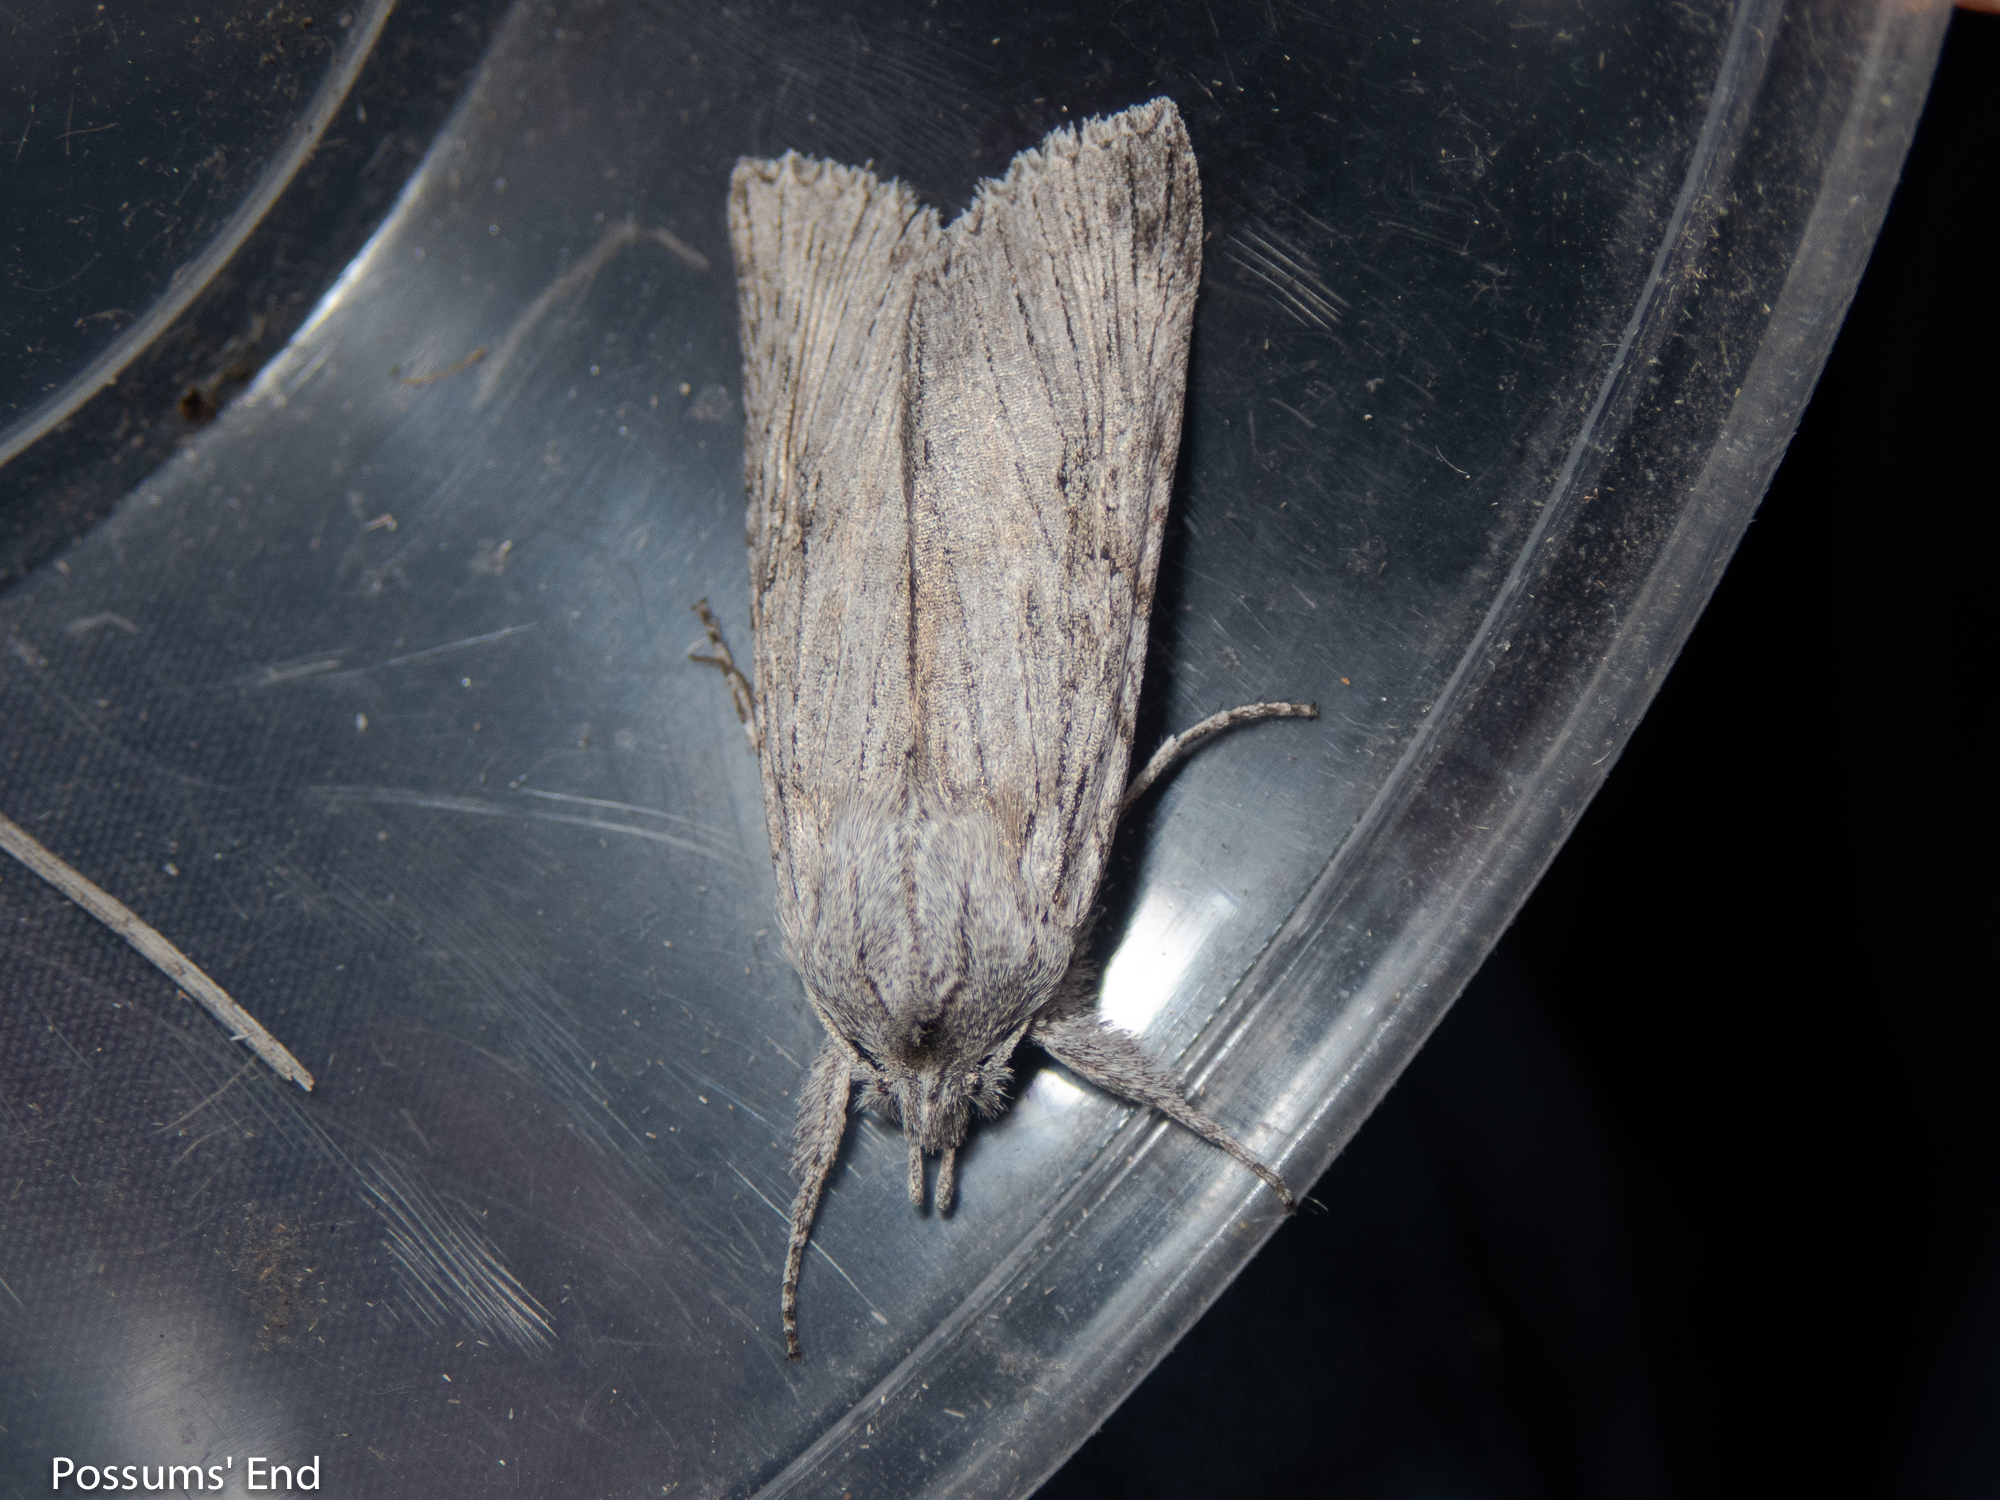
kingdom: Animalia
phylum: Arthropoda
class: Insecta
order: Lepidoptera
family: Noctuidae
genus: Physetica
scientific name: Physetica phricias
